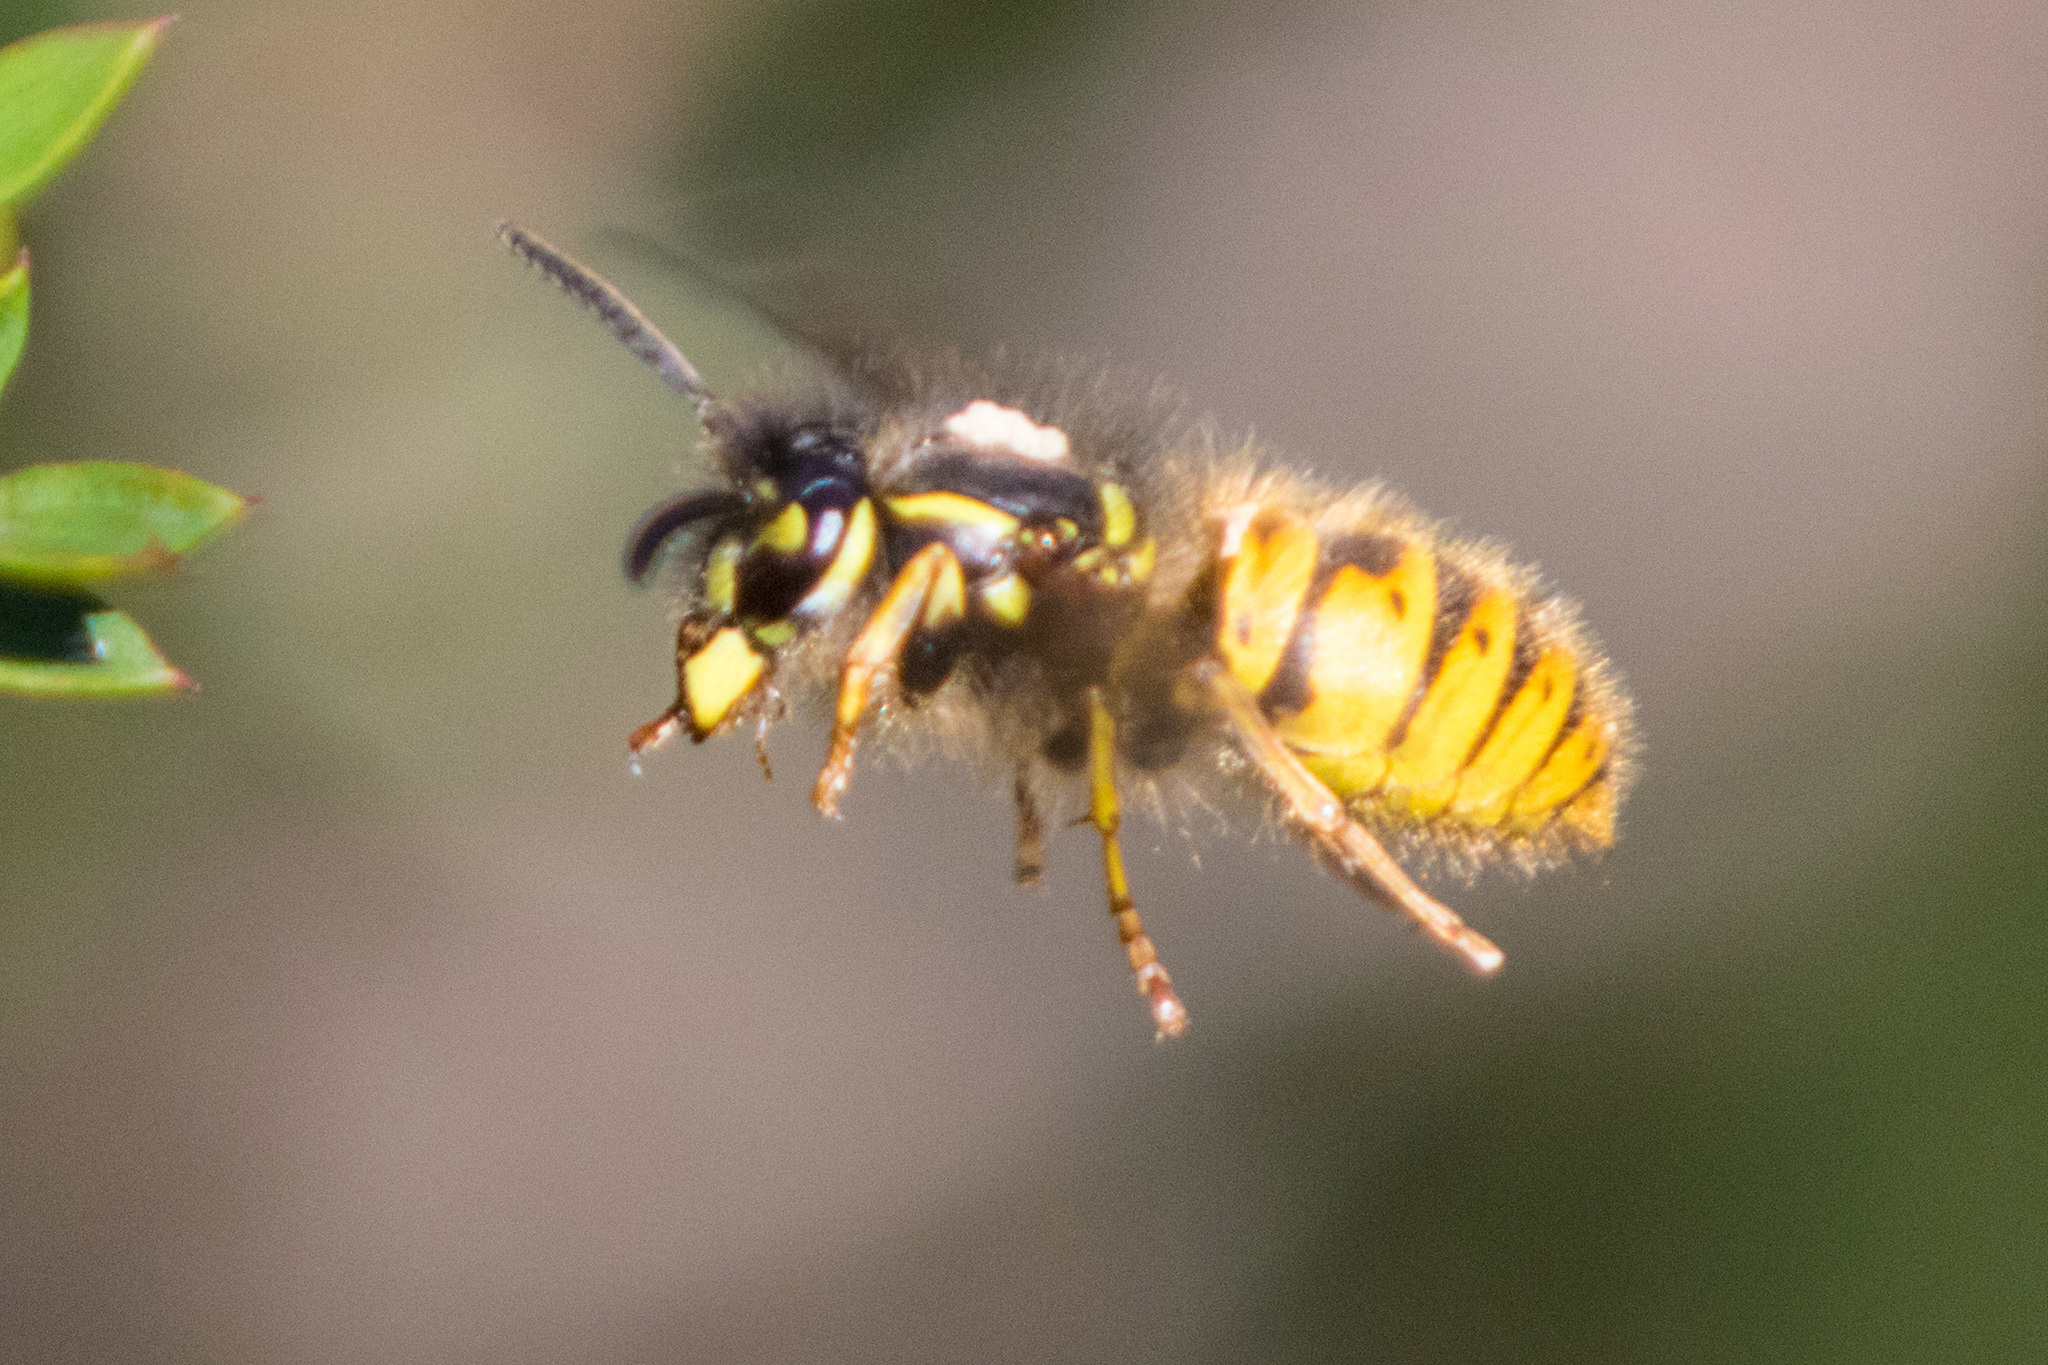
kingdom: Animalia
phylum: Arthropoda
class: Insecta
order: Hymenoptera
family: Vespidae
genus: Vespula
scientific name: Vespula vulgaris
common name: Common wasp
